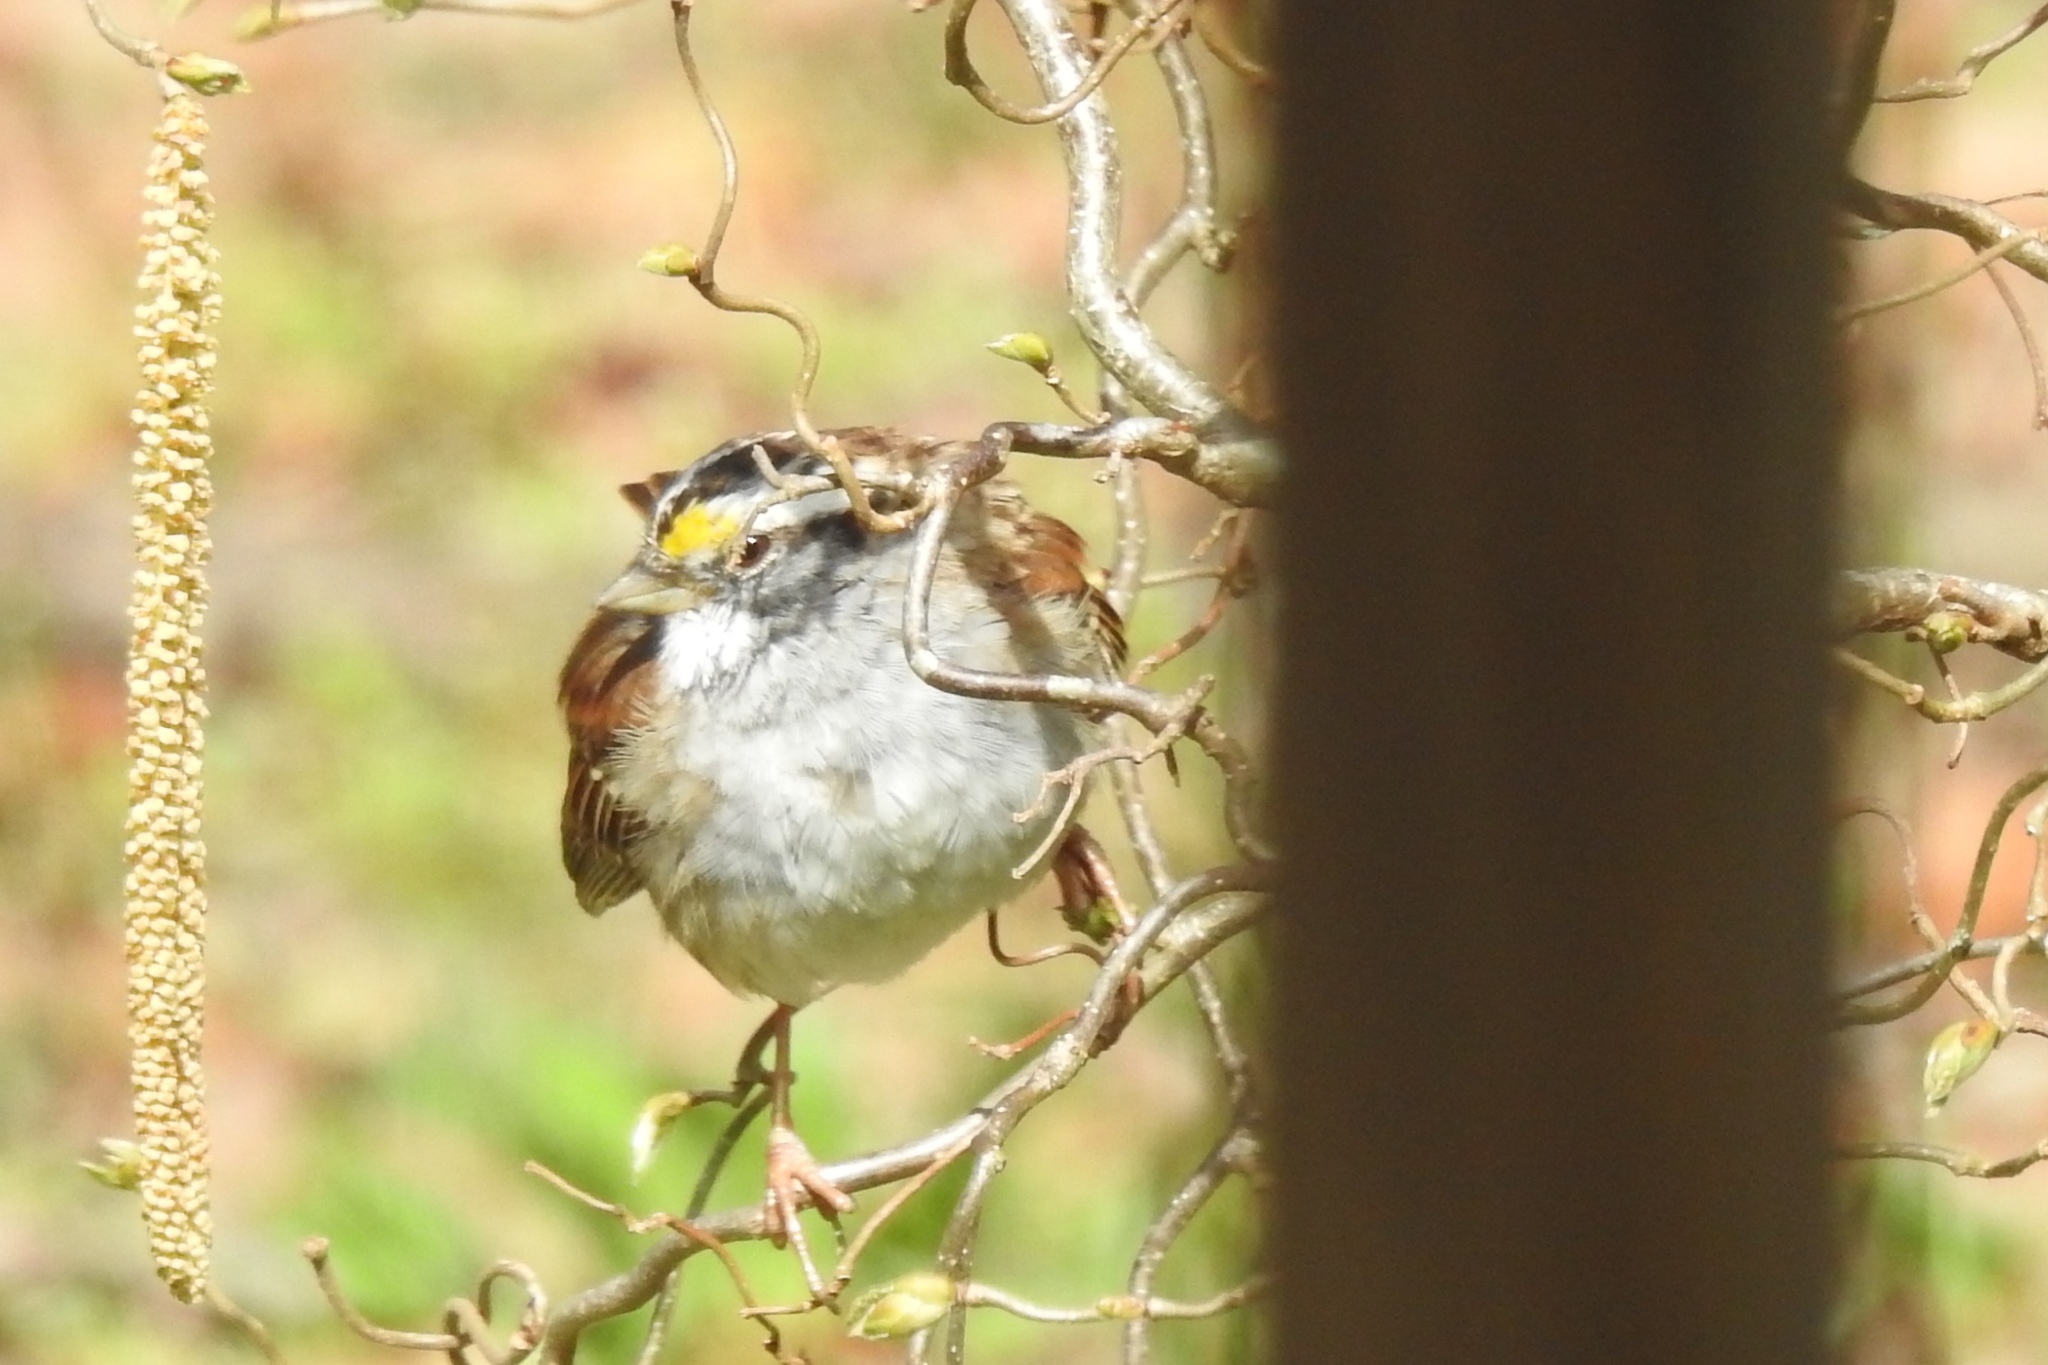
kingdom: Animalia
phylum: Chordata
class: Aves
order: Passeriformes
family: Passerellidae
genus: Zonotrichia
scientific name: Zonotrichia albicollis
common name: White-throated sparrow
